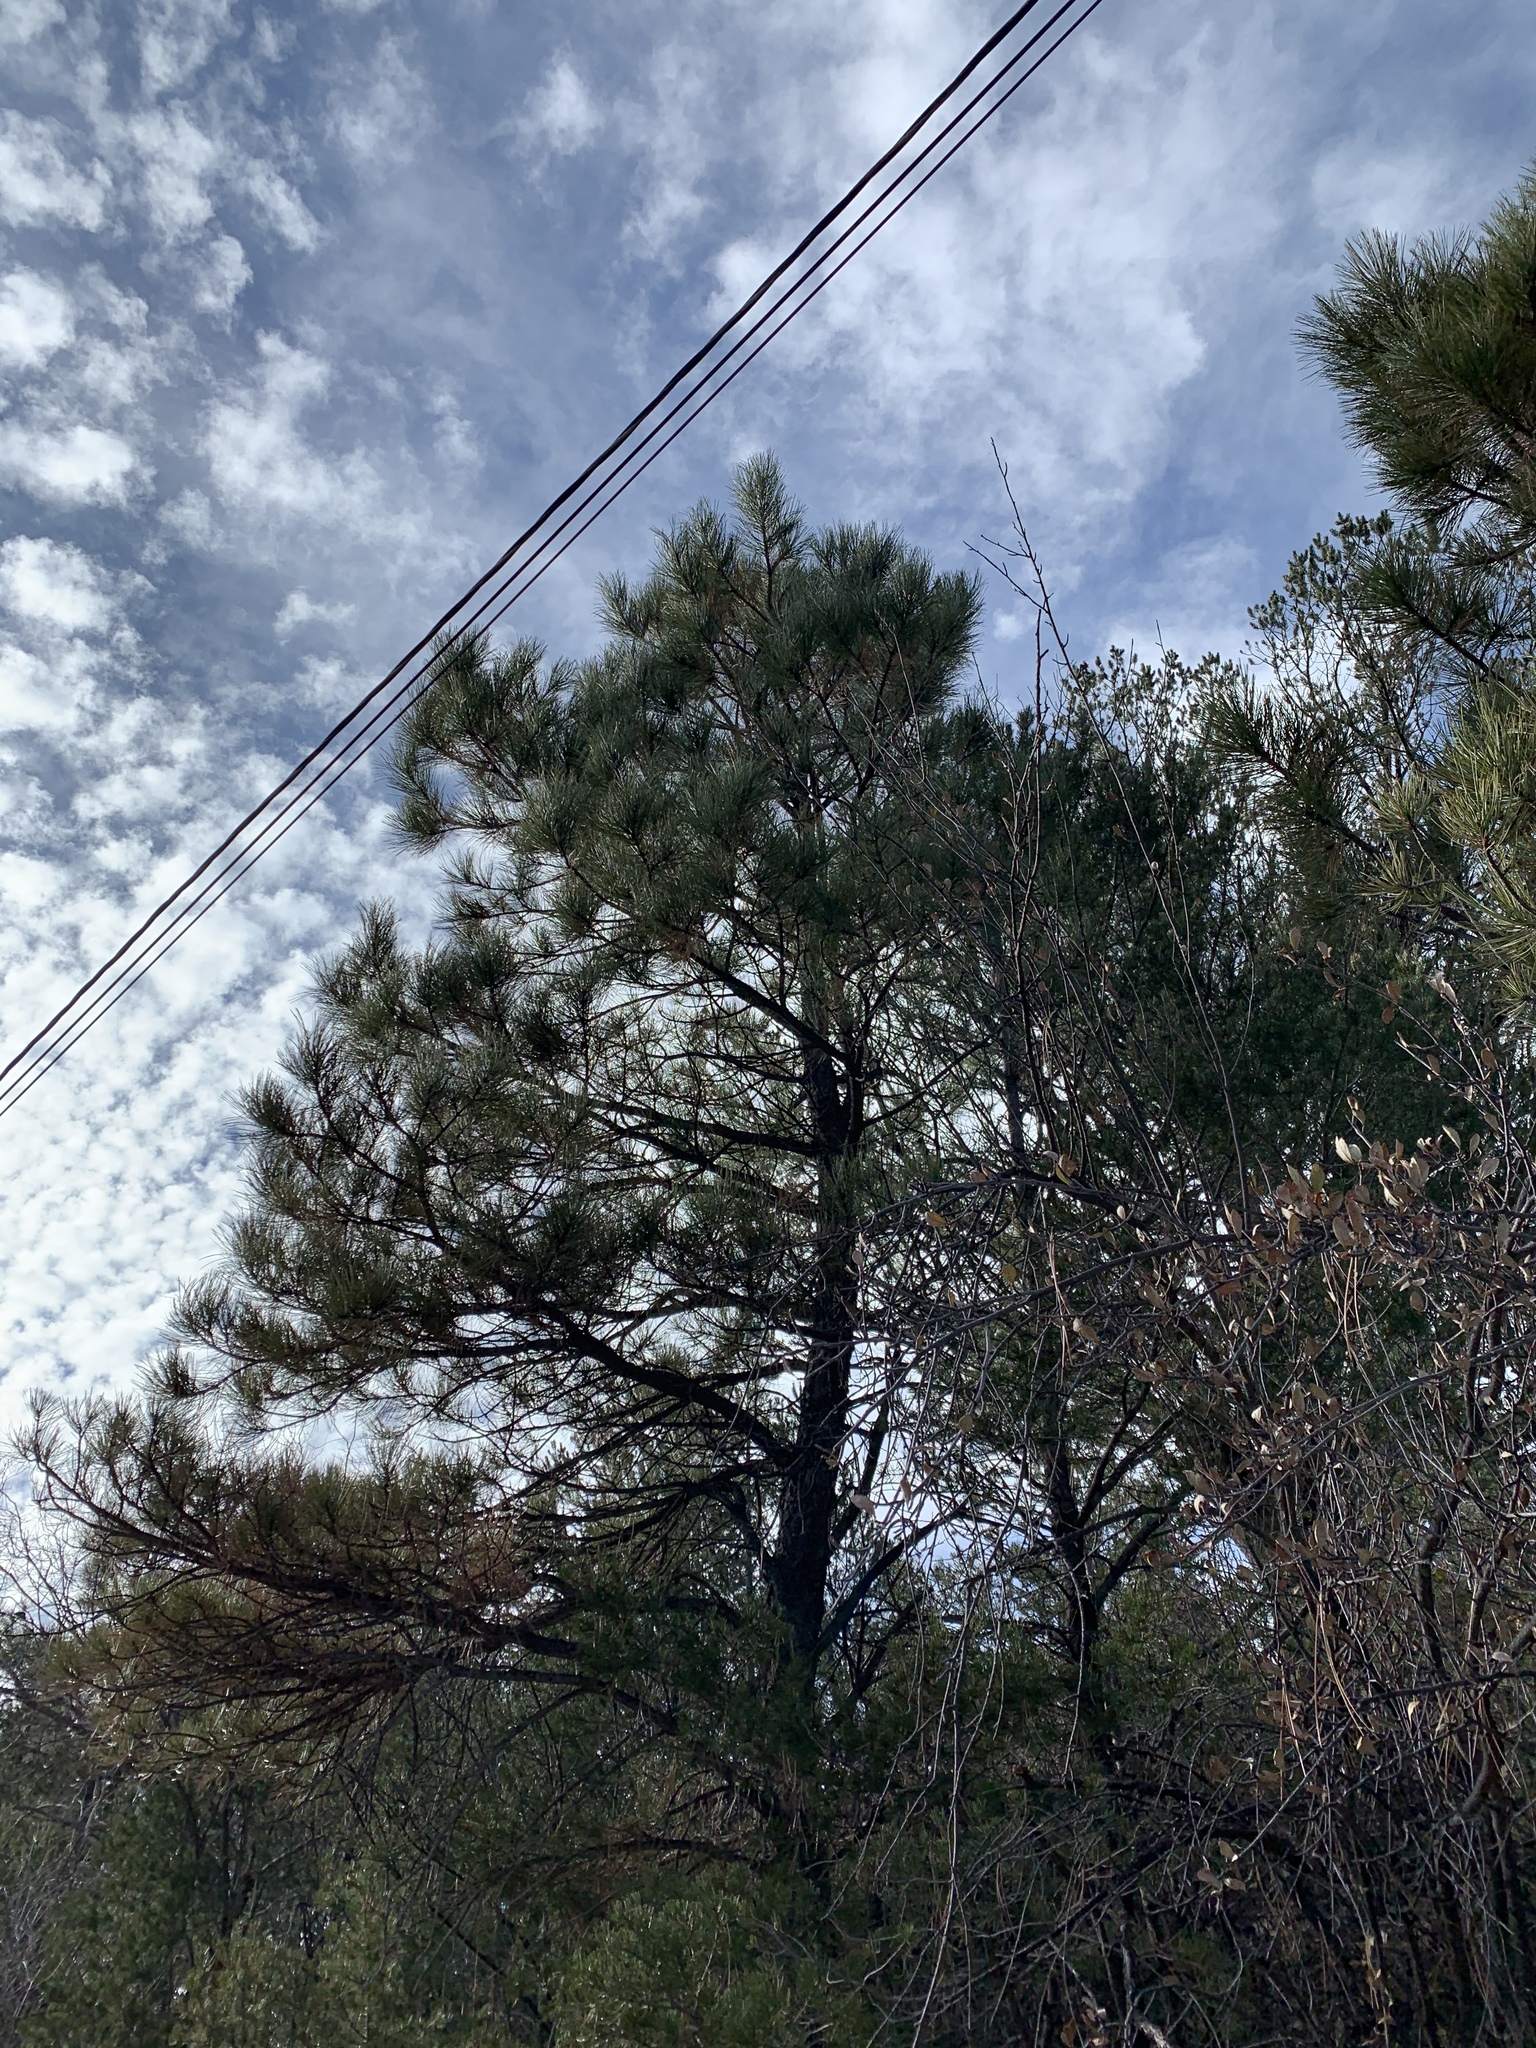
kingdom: Plantae
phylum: Tracheophyta
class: Pinopsida
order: Pinales
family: Pinaceae
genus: Pinus
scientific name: Pinus ponderosa
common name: Western yellow-pine
